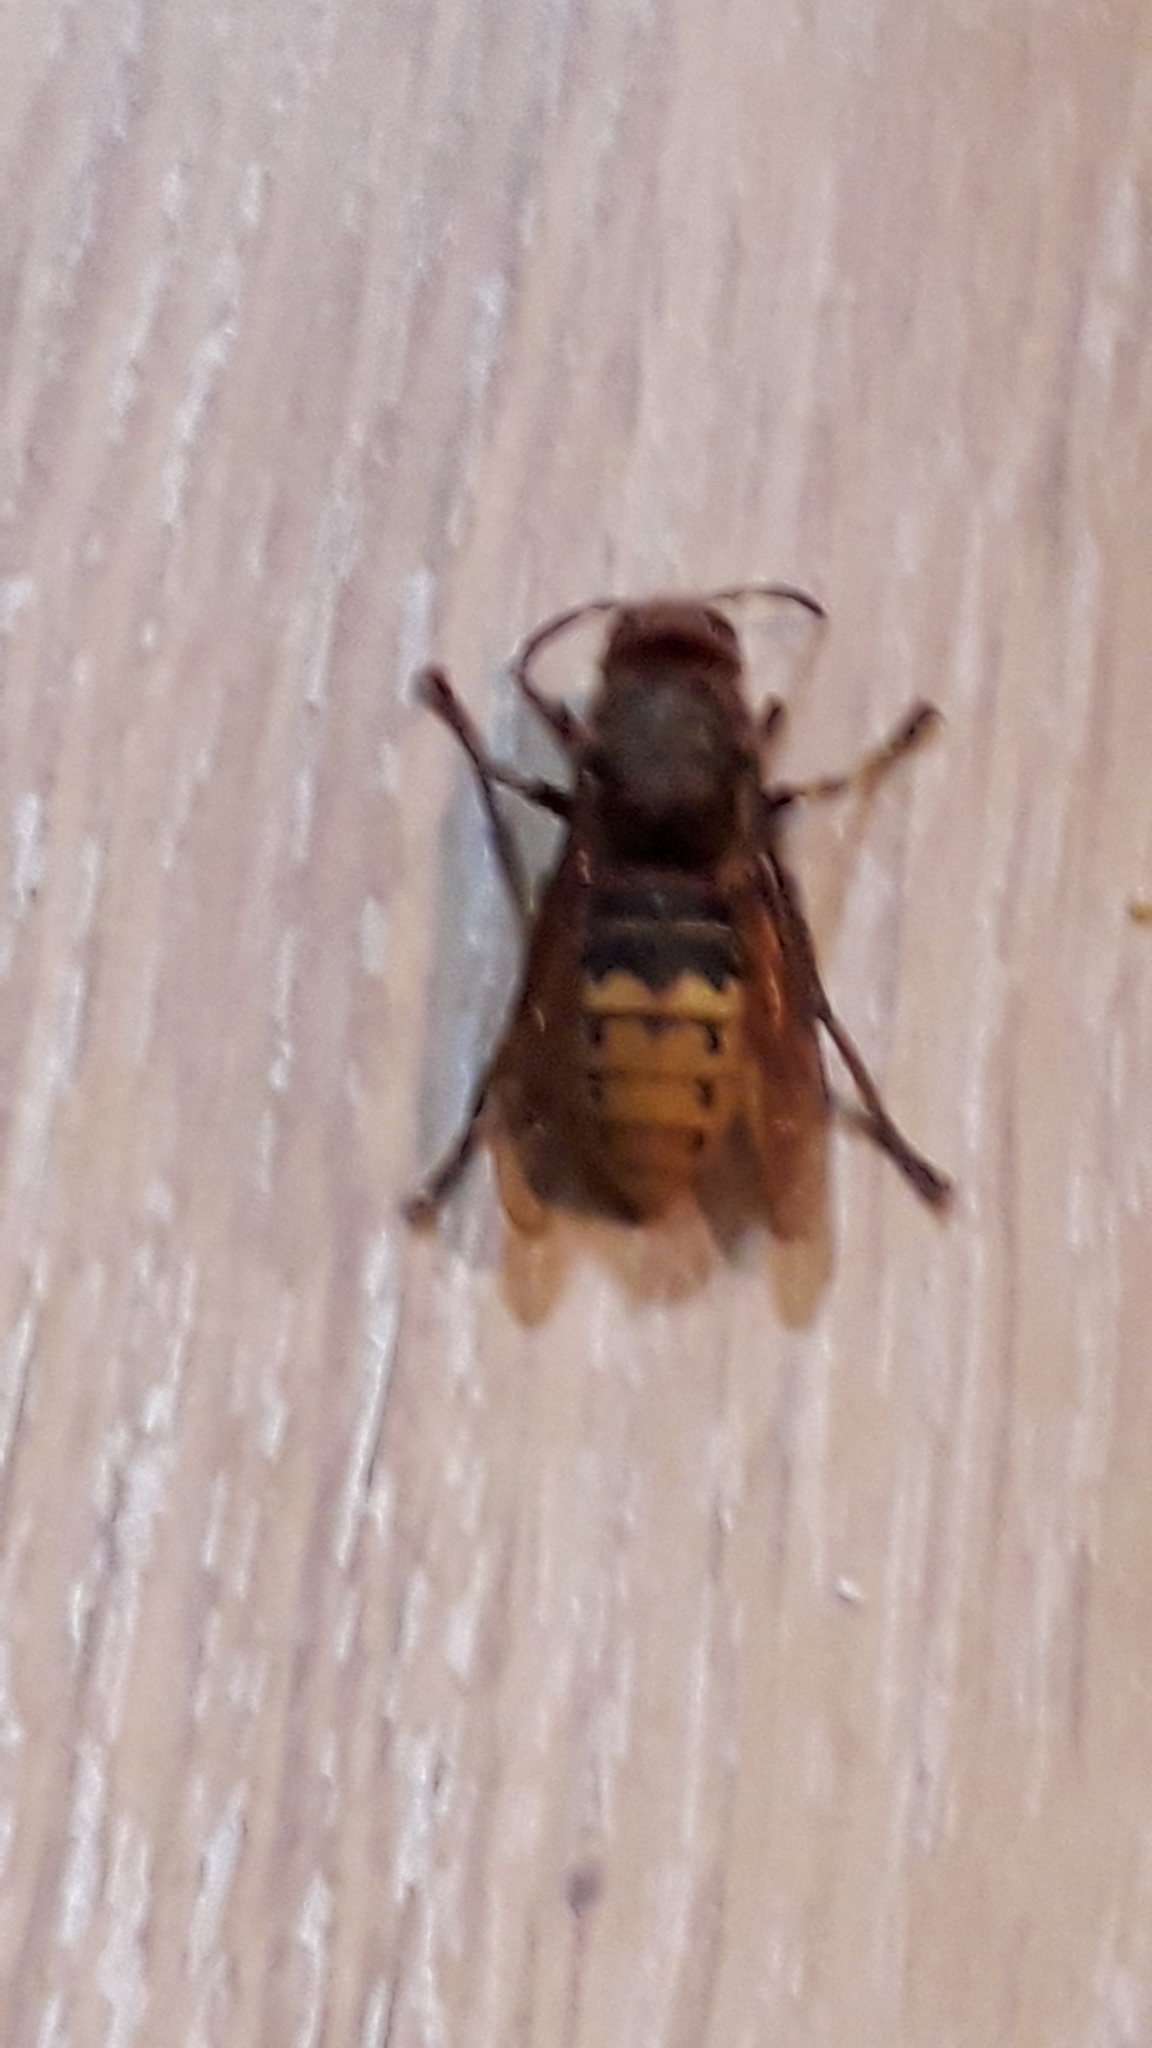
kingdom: Animalia
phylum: Arthropoda
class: Insecta
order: Hymenoptera
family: Vespidae
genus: Vespa
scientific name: Vespa crabro
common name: Hornet
